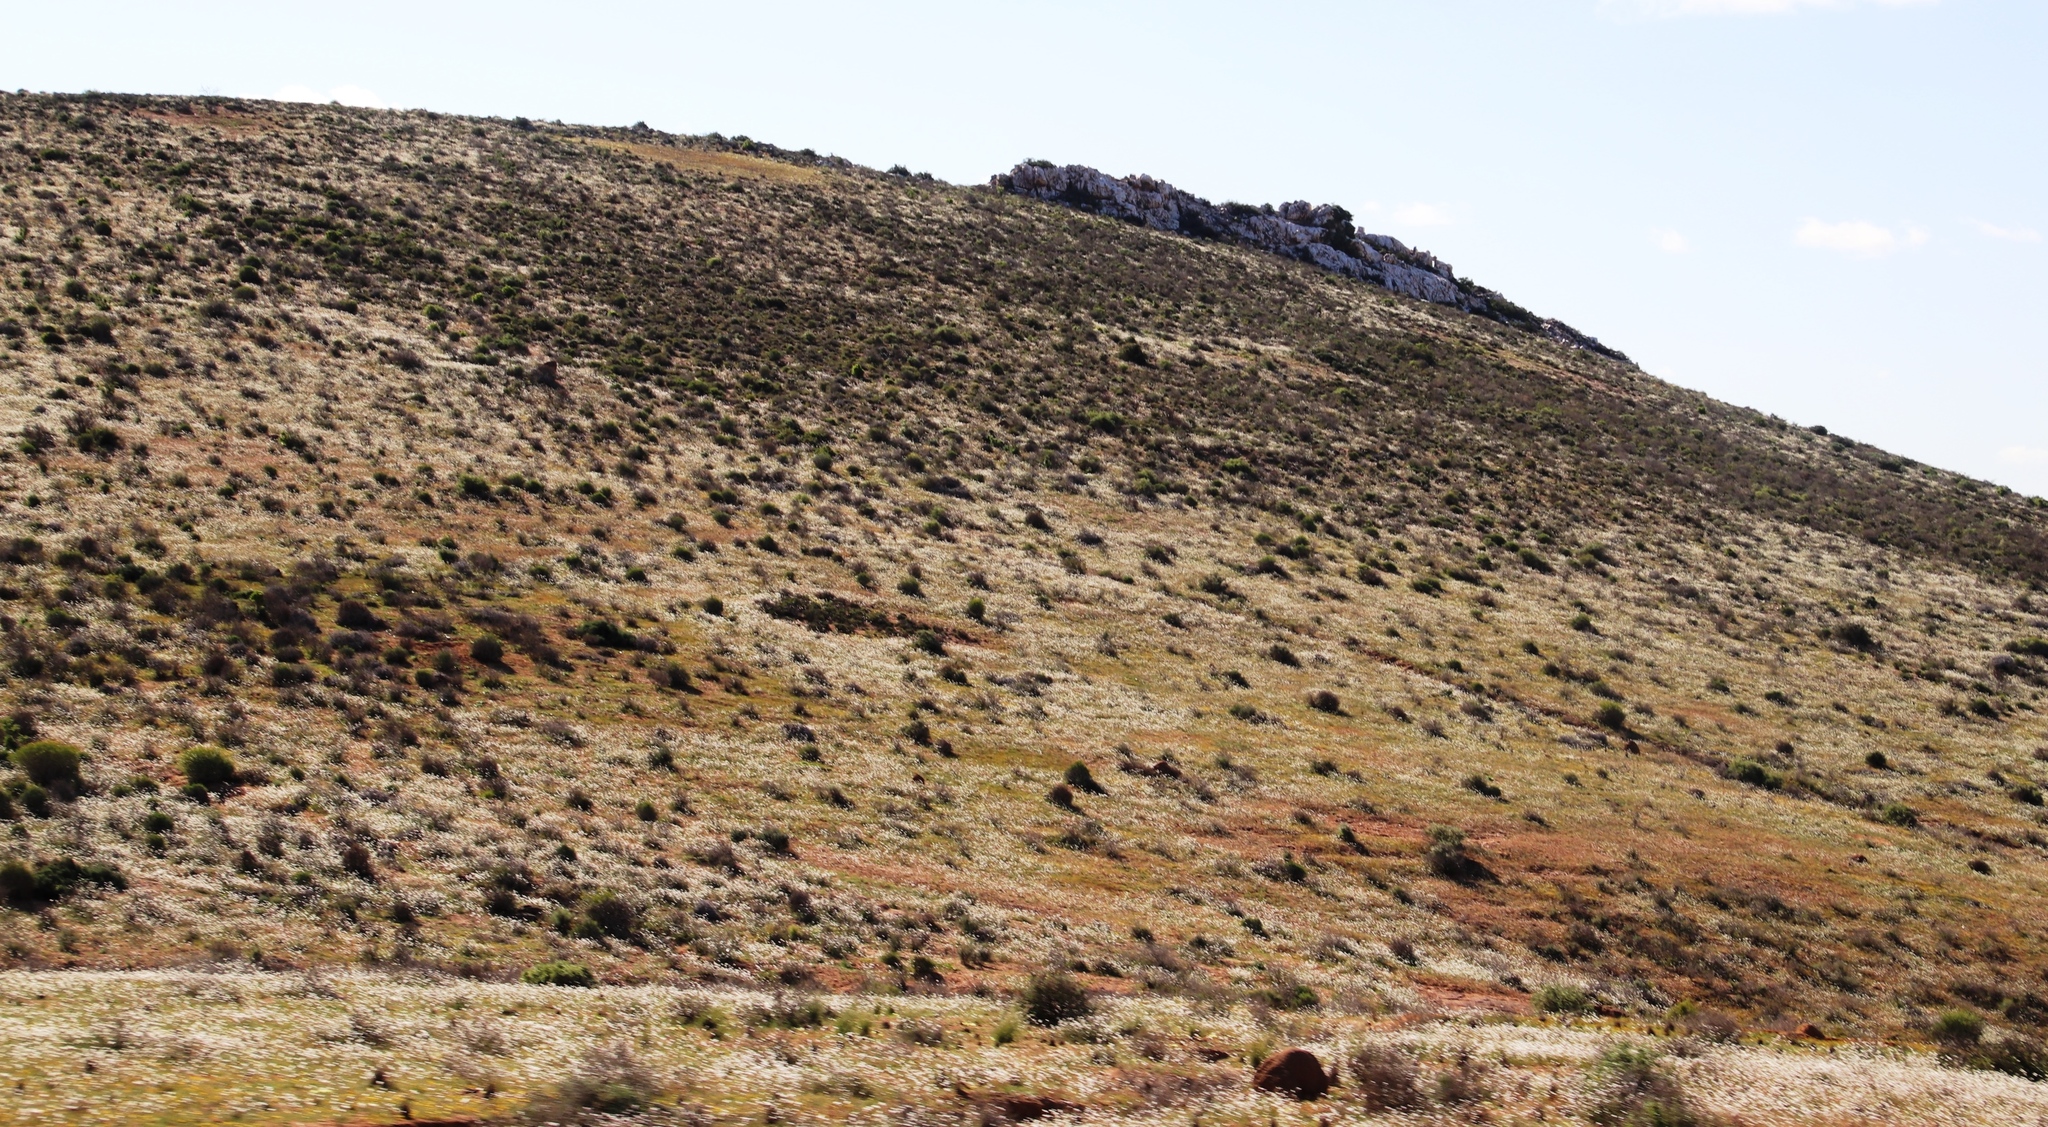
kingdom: Plantae
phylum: Tracheophyta
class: Magnoliopsida
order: Brassicales
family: Brassicaceae
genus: Heliophila
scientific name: Heliophila variabilis
